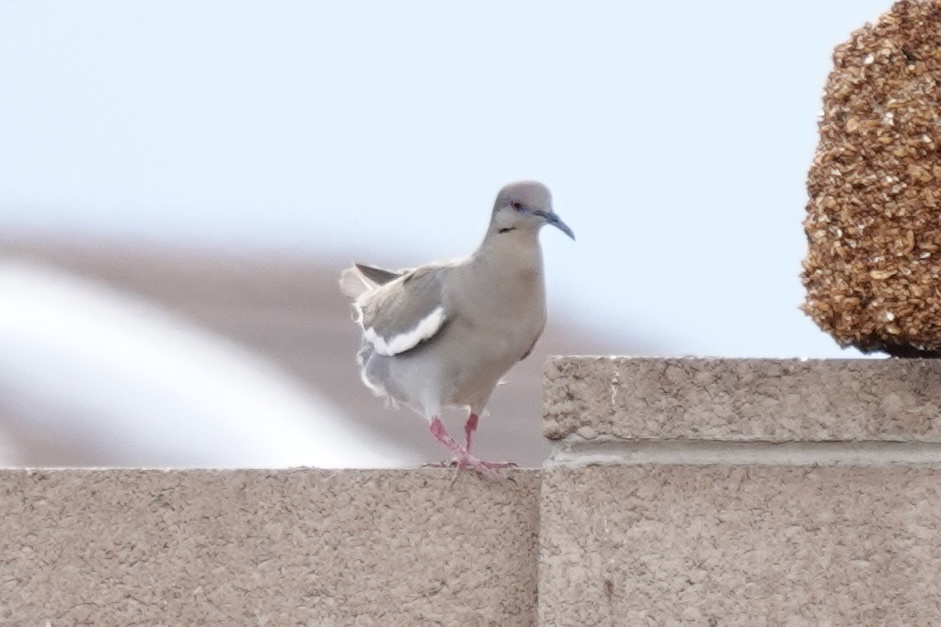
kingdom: Animalia
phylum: Chordata
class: Aves
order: Columbiformes
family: Columbidae
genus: Zenaida
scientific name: Zenaida asiatica
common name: White-winged dove
